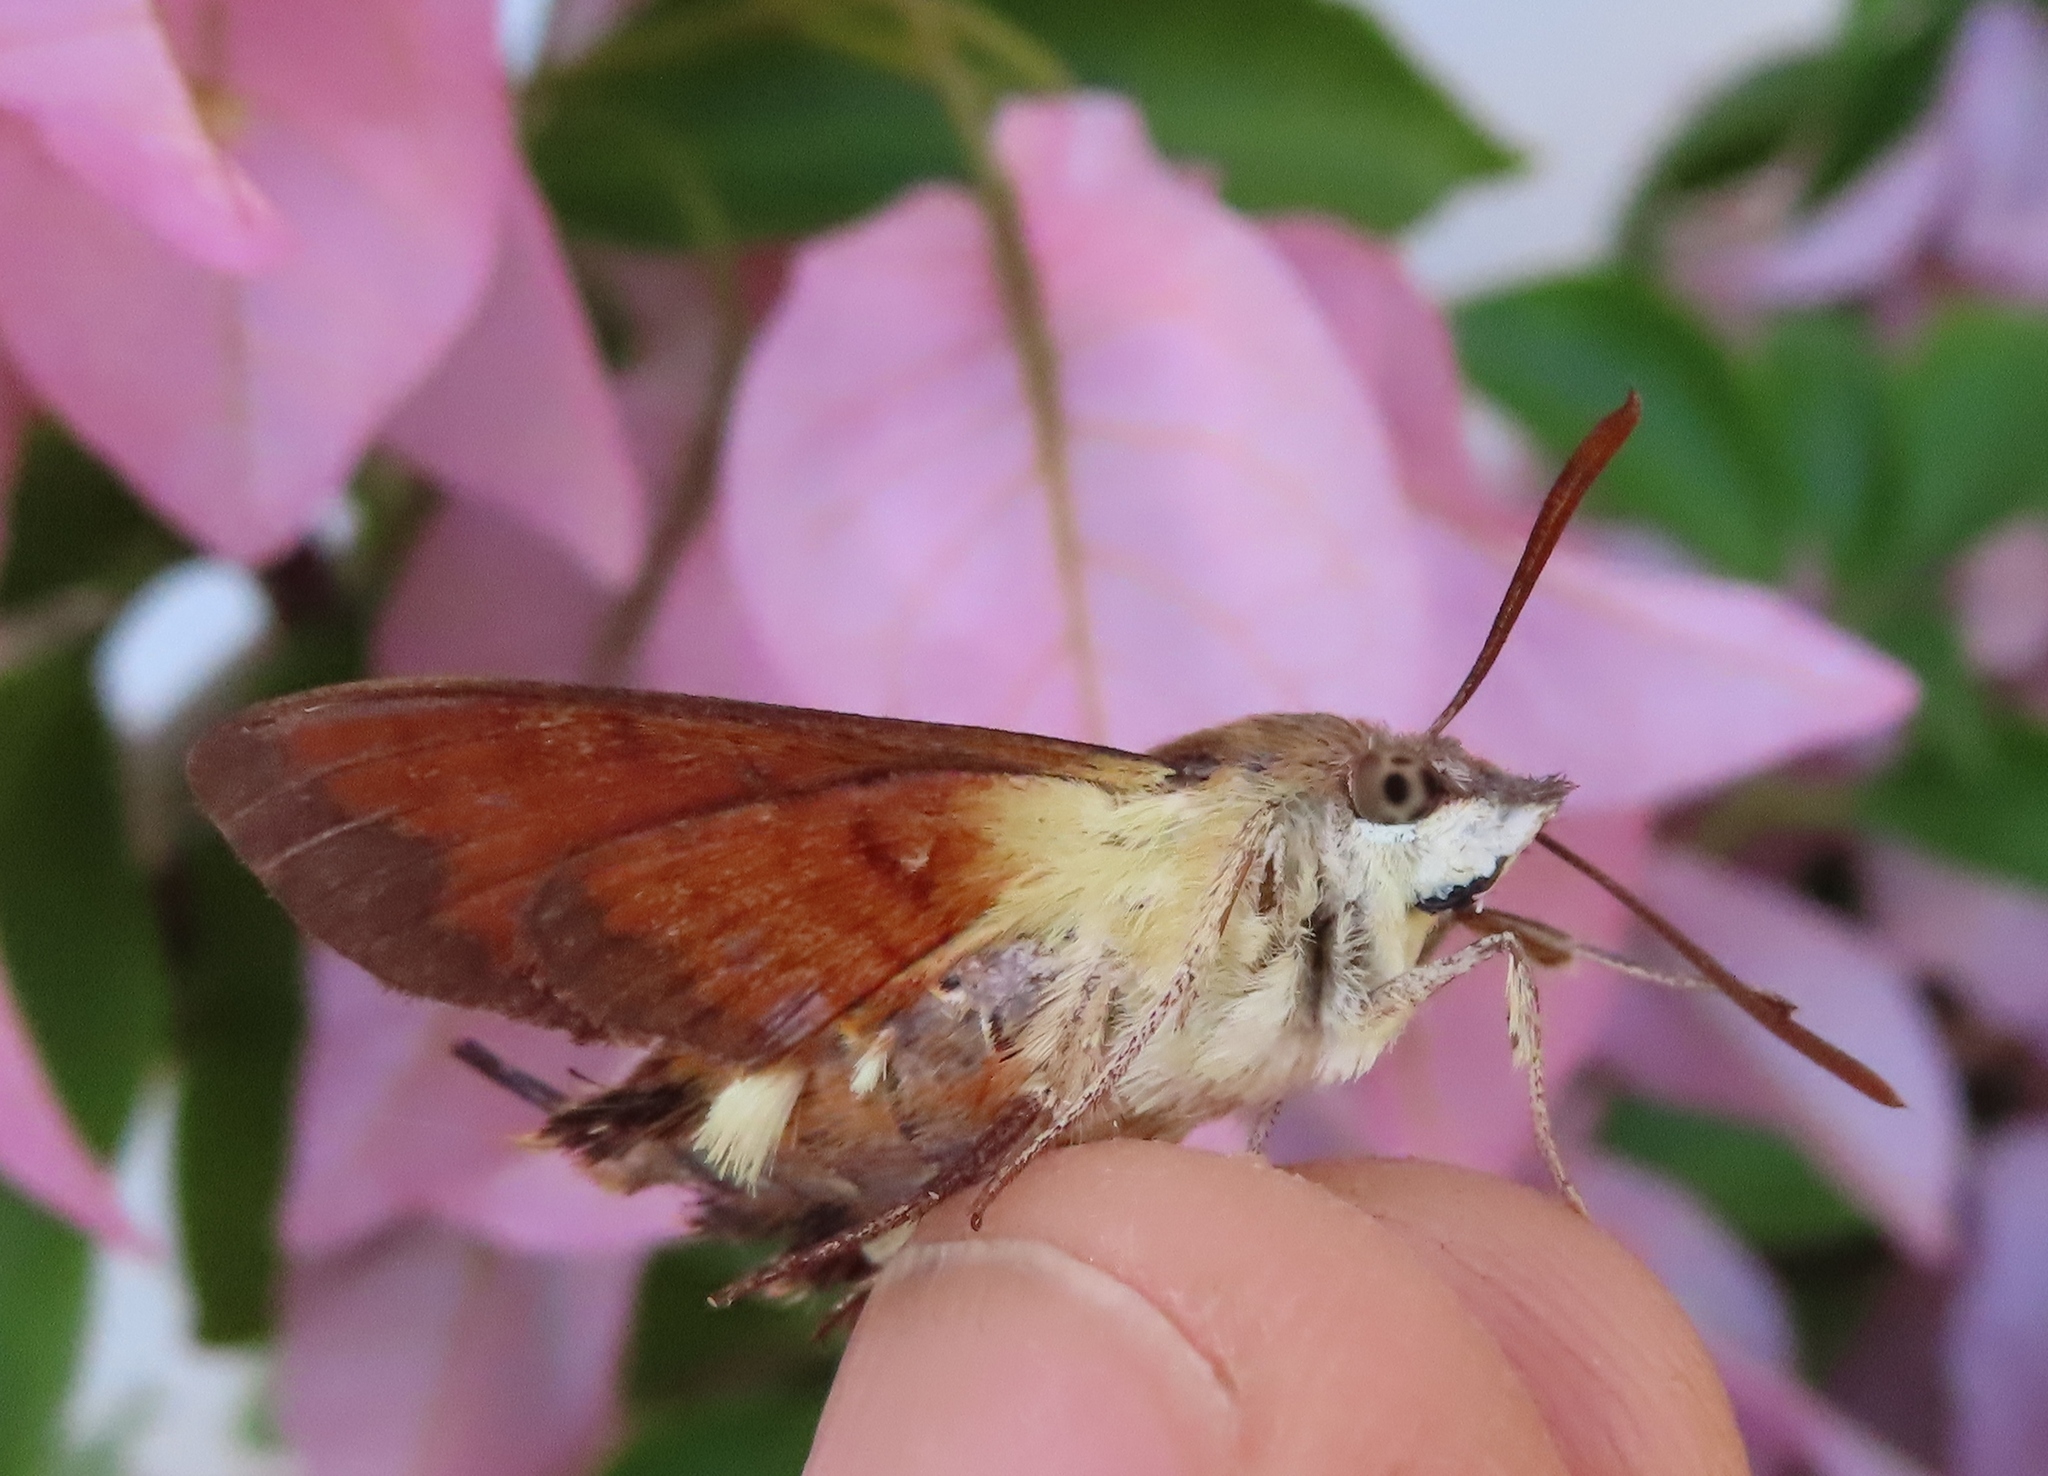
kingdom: Animalia
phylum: Arthropoda
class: Insecta
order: Lepidoptera
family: Sphingidae
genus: Macroglossum
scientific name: Macroglossum trochilus
